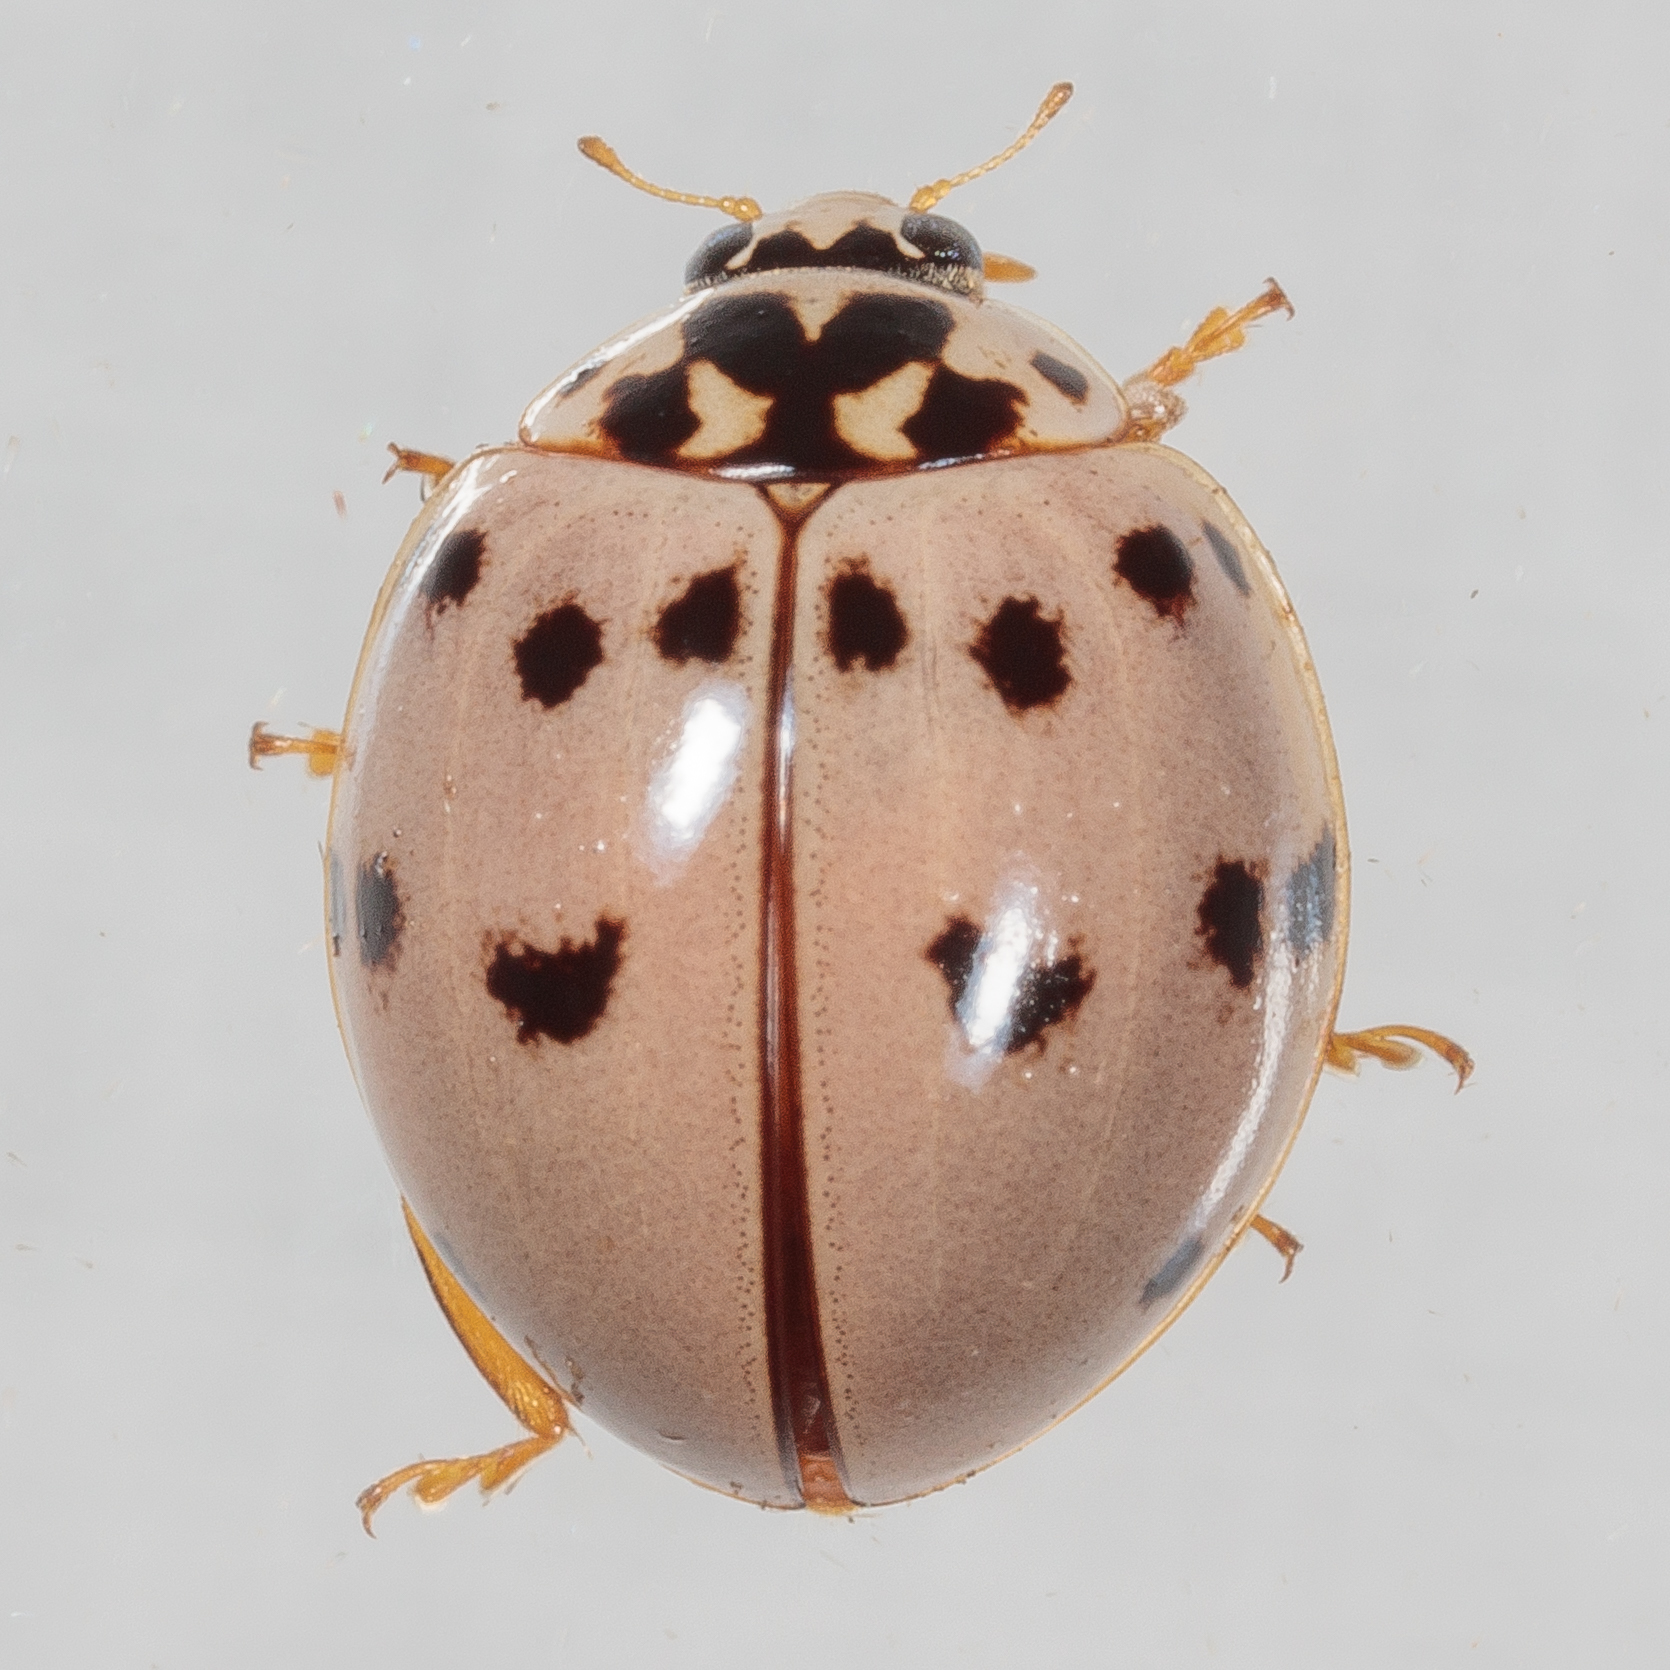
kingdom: Animalia
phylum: Arthropoda
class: Insecta
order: Coleoptera
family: Coccinellidae
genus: Olla
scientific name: Olla v-nigrum
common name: Ashy gray lady beetle
